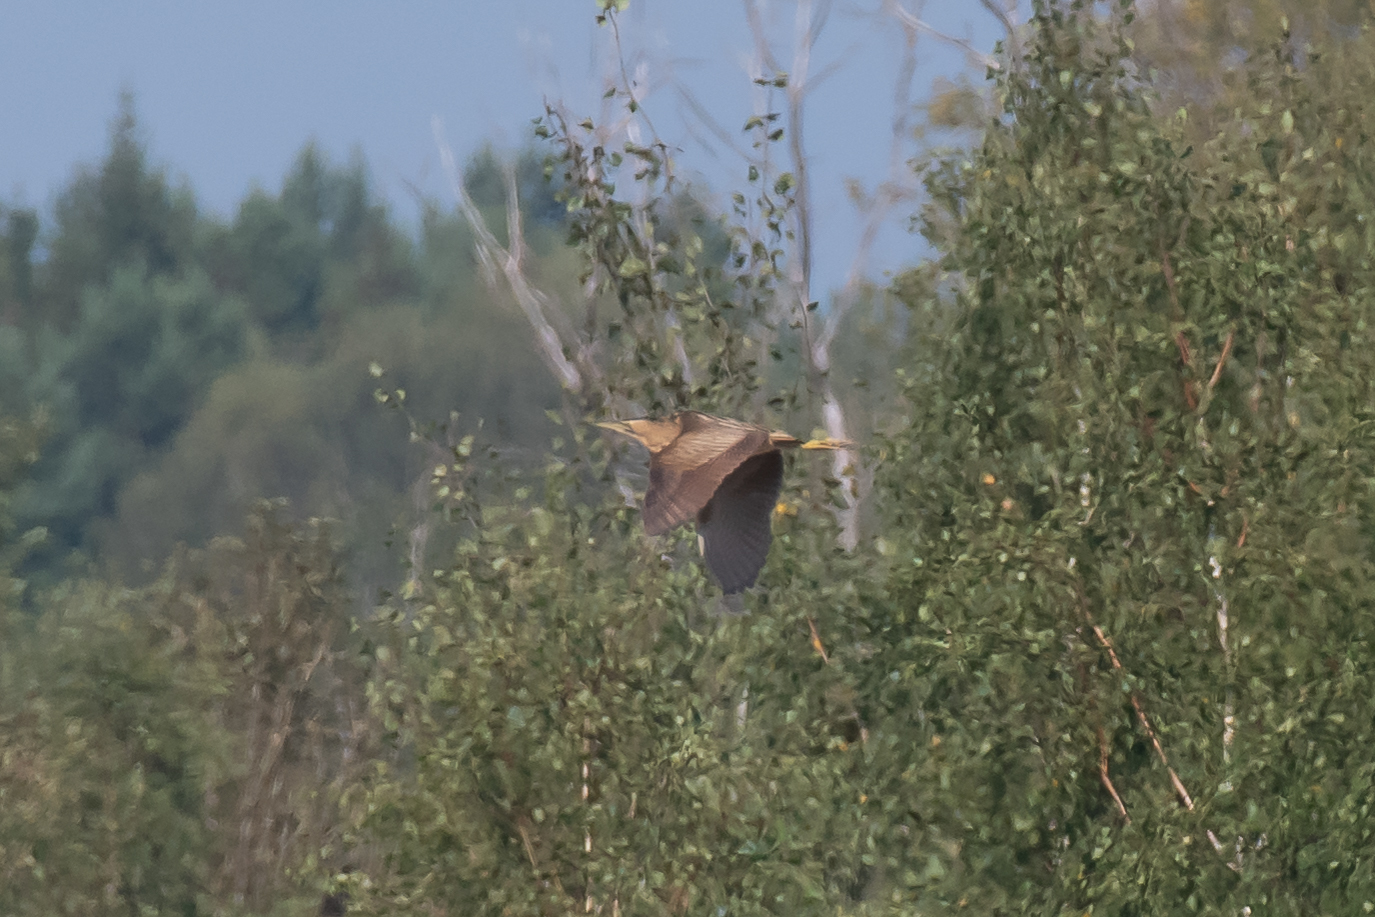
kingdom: Animalia
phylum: Chordata
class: Aves
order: Pelecaniformes
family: Ardeidae
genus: Botaurus
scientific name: Botaurus stellaris
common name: Eurasian bittern
